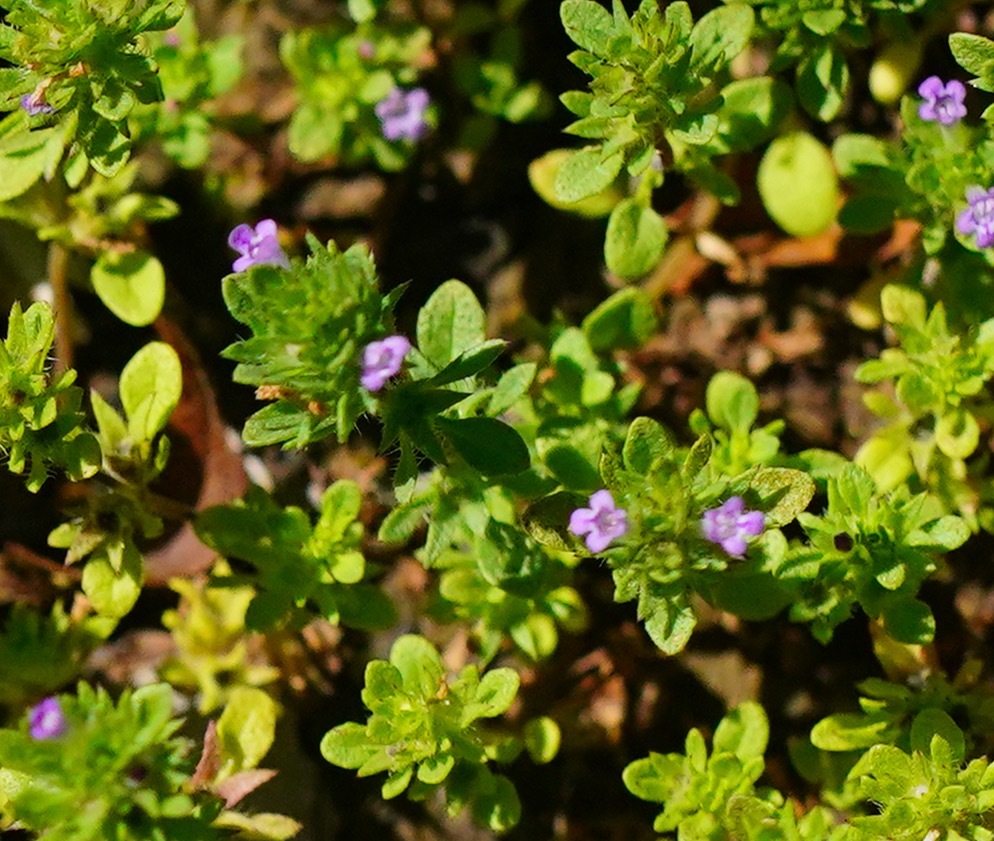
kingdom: Plantae
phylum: Tracheophyta
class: Magnoliopsida
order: Lamiales
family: Lamiaceae
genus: Pogogyne
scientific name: Pogogyne serpylloides
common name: Thymeleaf mesamint
